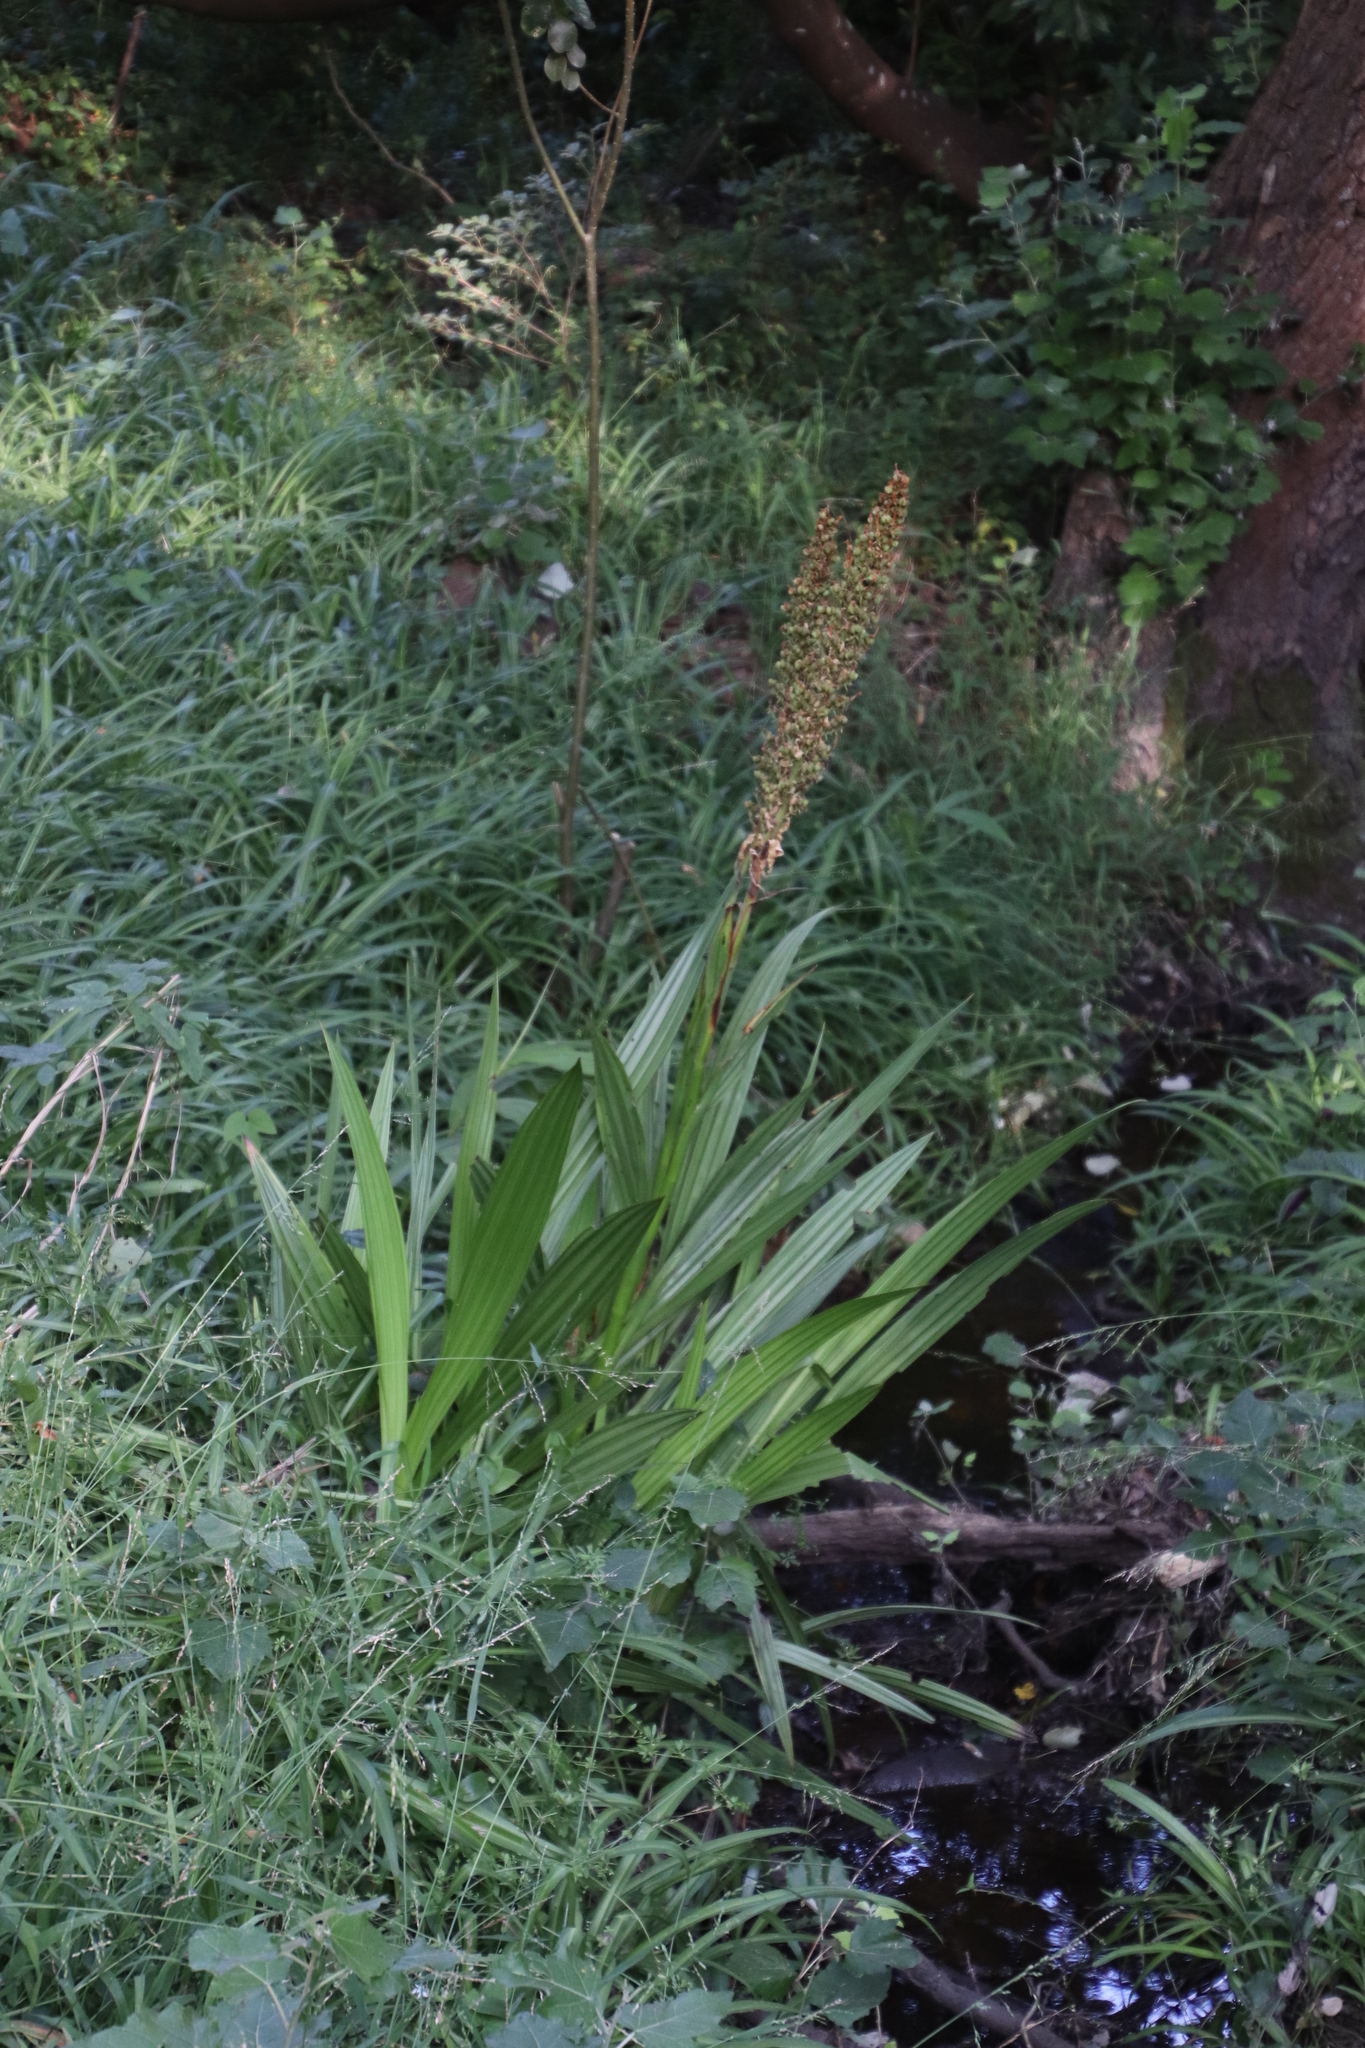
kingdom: Plantae
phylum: Tracheophyta
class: Liliopsida
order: Commelinales
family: Haemodoraceae
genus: Wachendorfia
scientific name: Wachendorfia thyrsiflora
